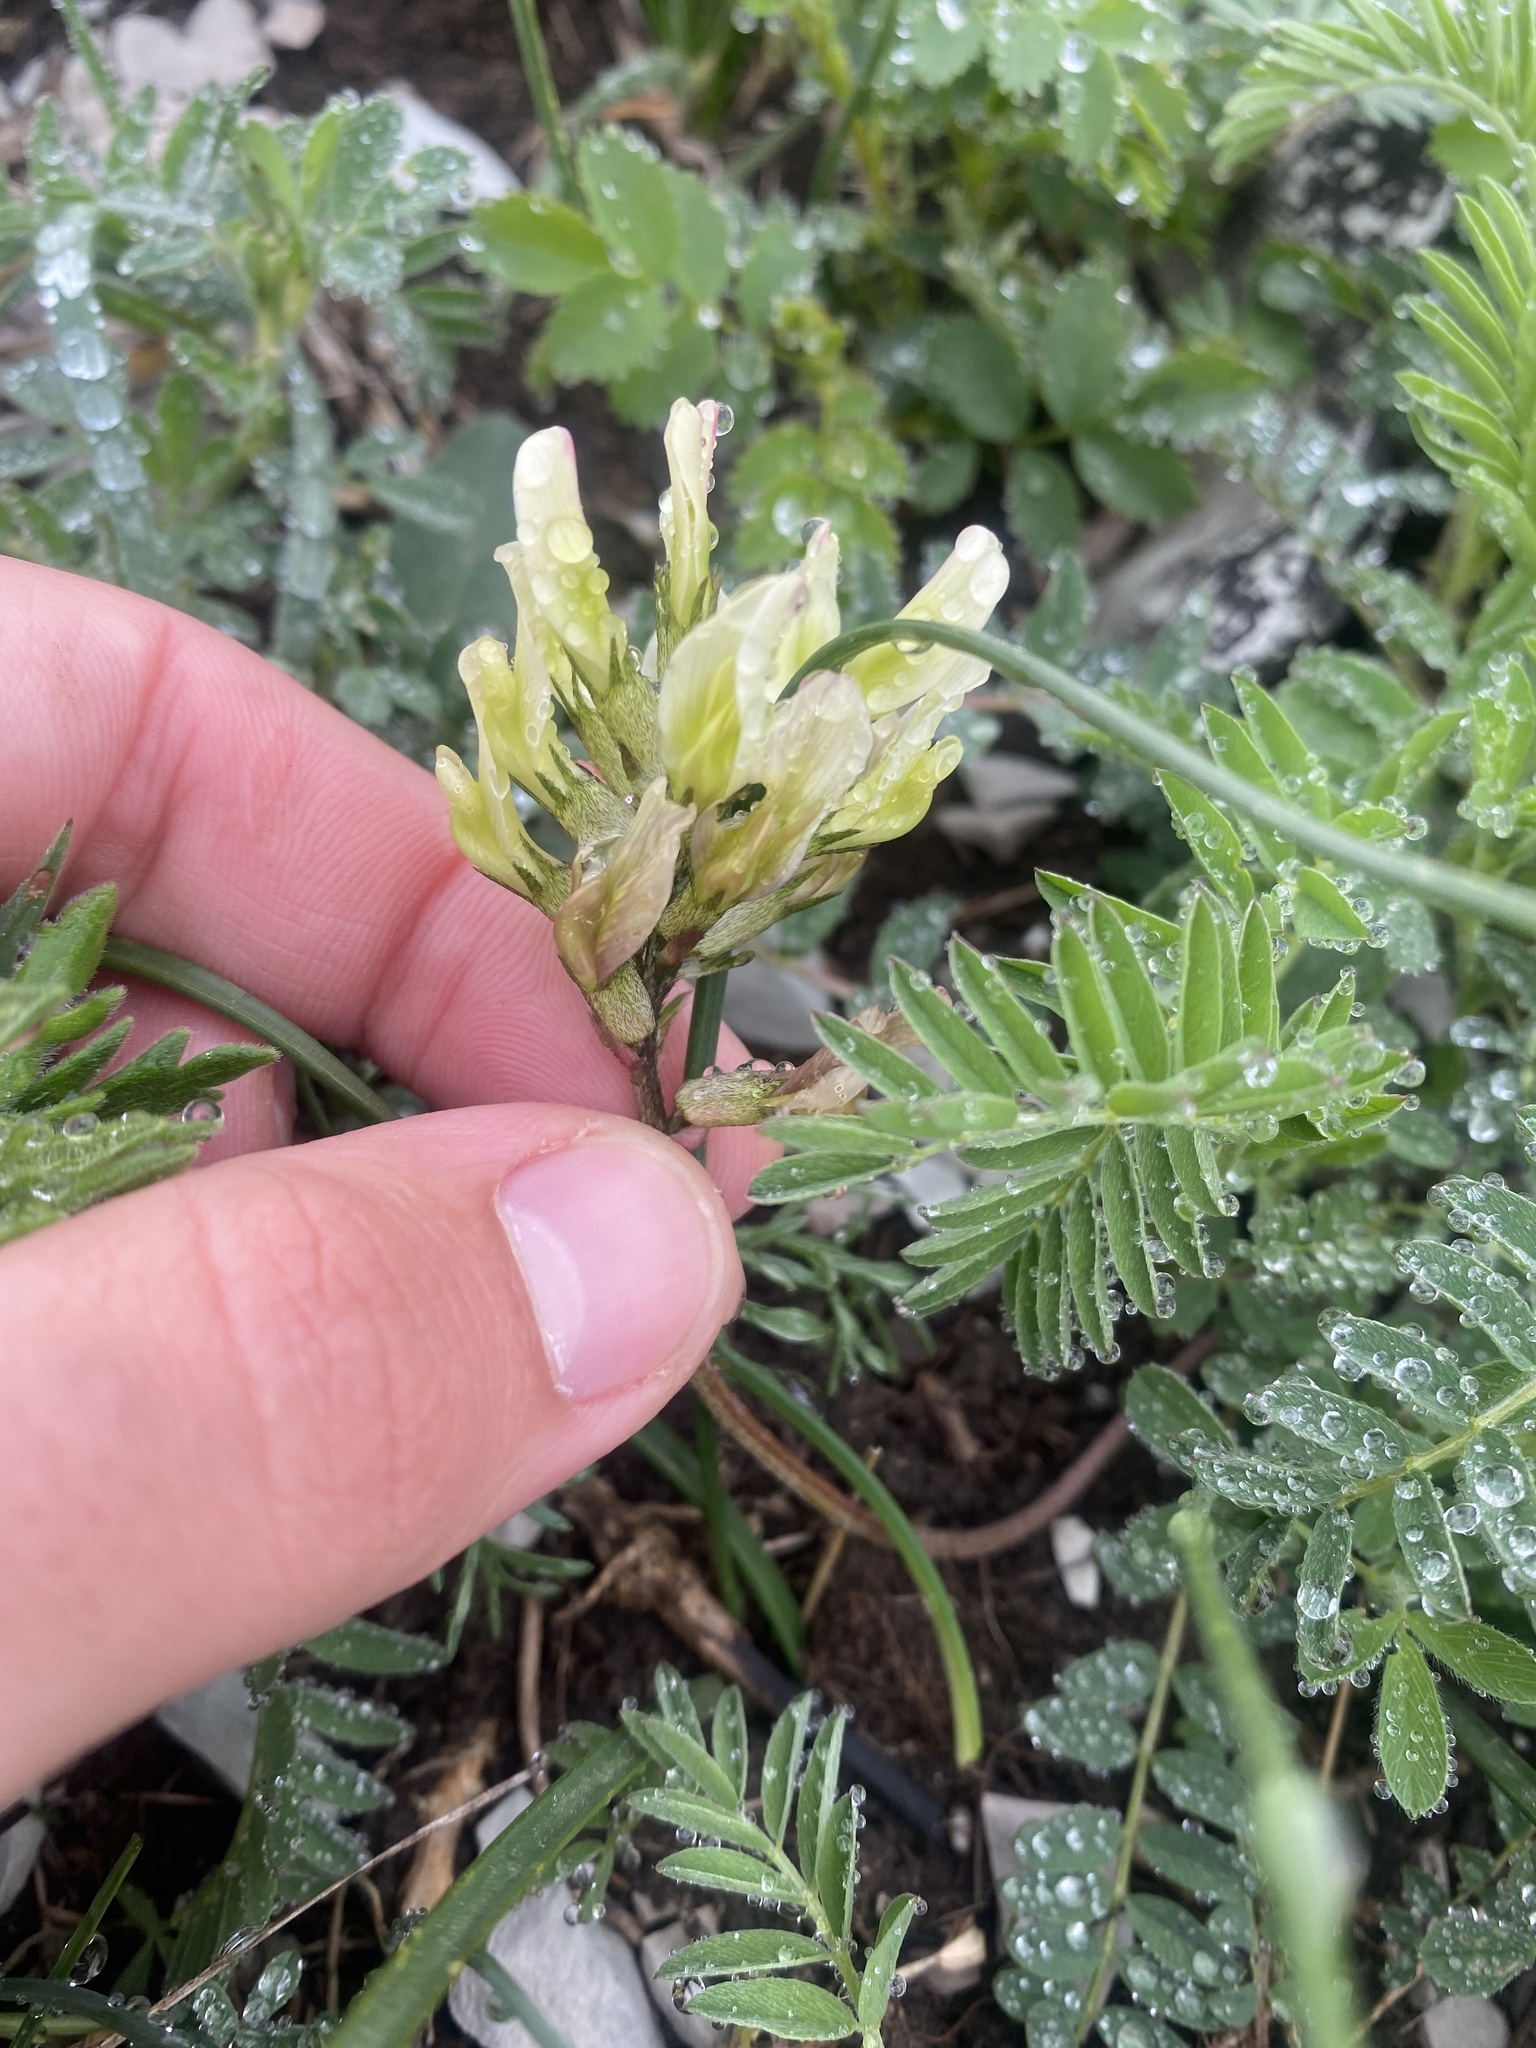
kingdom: Plantae
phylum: Tracheophyta
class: Magnoliopsida
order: Fabales
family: Fabaceae
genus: Astragalus
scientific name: Astragalus fragrans
